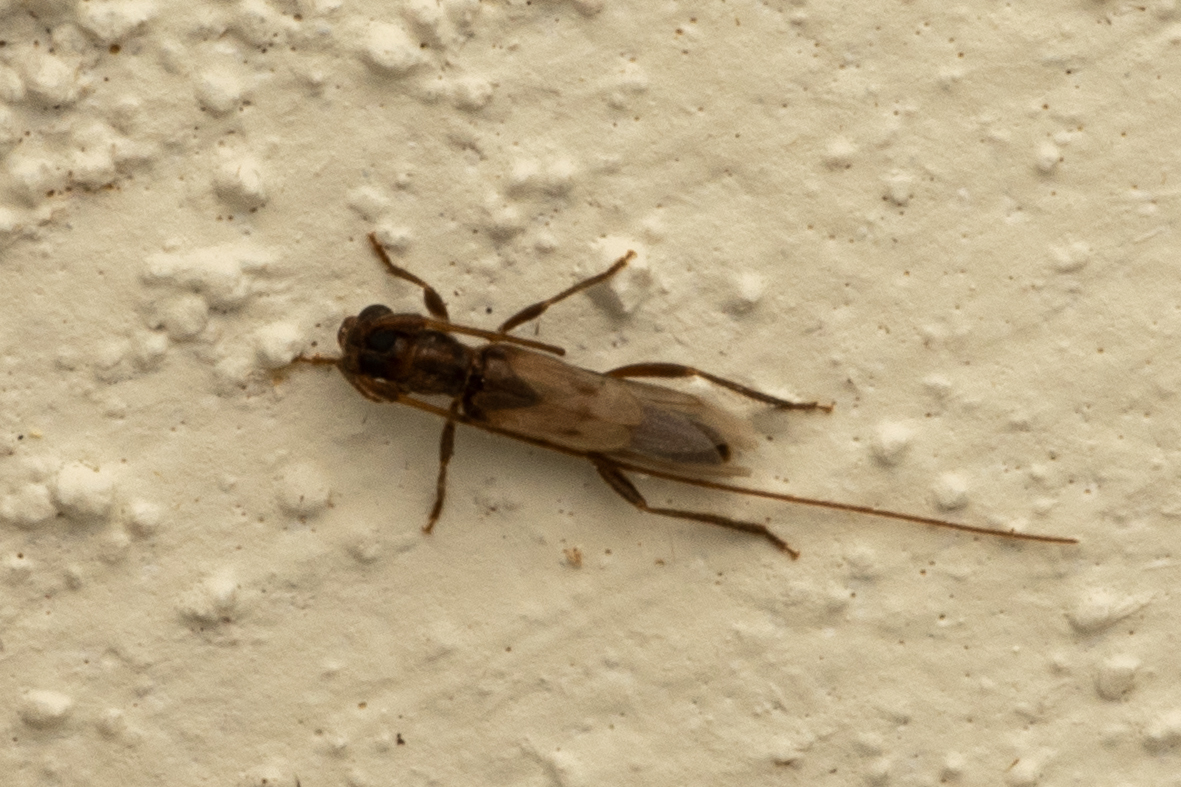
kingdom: Animalia
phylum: Arthropoda
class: Insecta
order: Coleoptera
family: Cerambycidae
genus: Methia
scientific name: Methia necydalea
